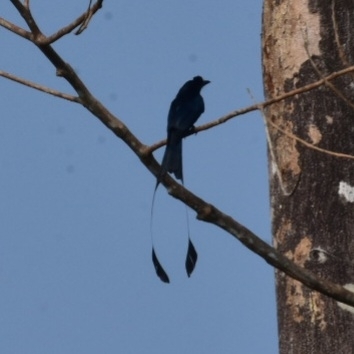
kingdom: Animalia
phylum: Chordata
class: Aves
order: Passeriformes
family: Dicruridae
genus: Dicrurus
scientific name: Dicrurus paradiseus
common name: Greater racket-tailed drongo
